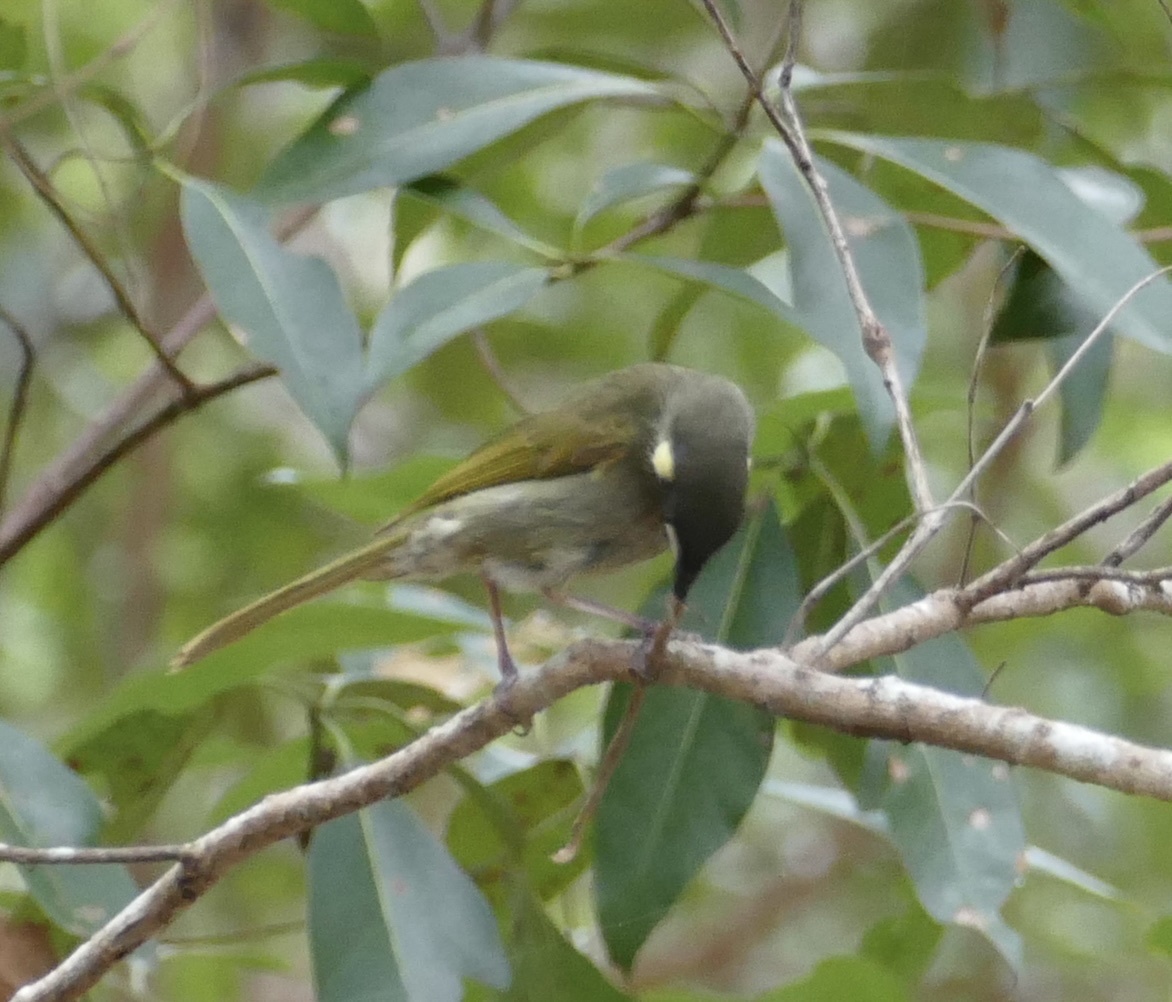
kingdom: Animalia
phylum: Chordata
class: Aves
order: Passeriformes
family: Meliphagidae
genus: Meliphaga
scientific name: Meliphaga lewinii
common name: Lewin's honeyeater
